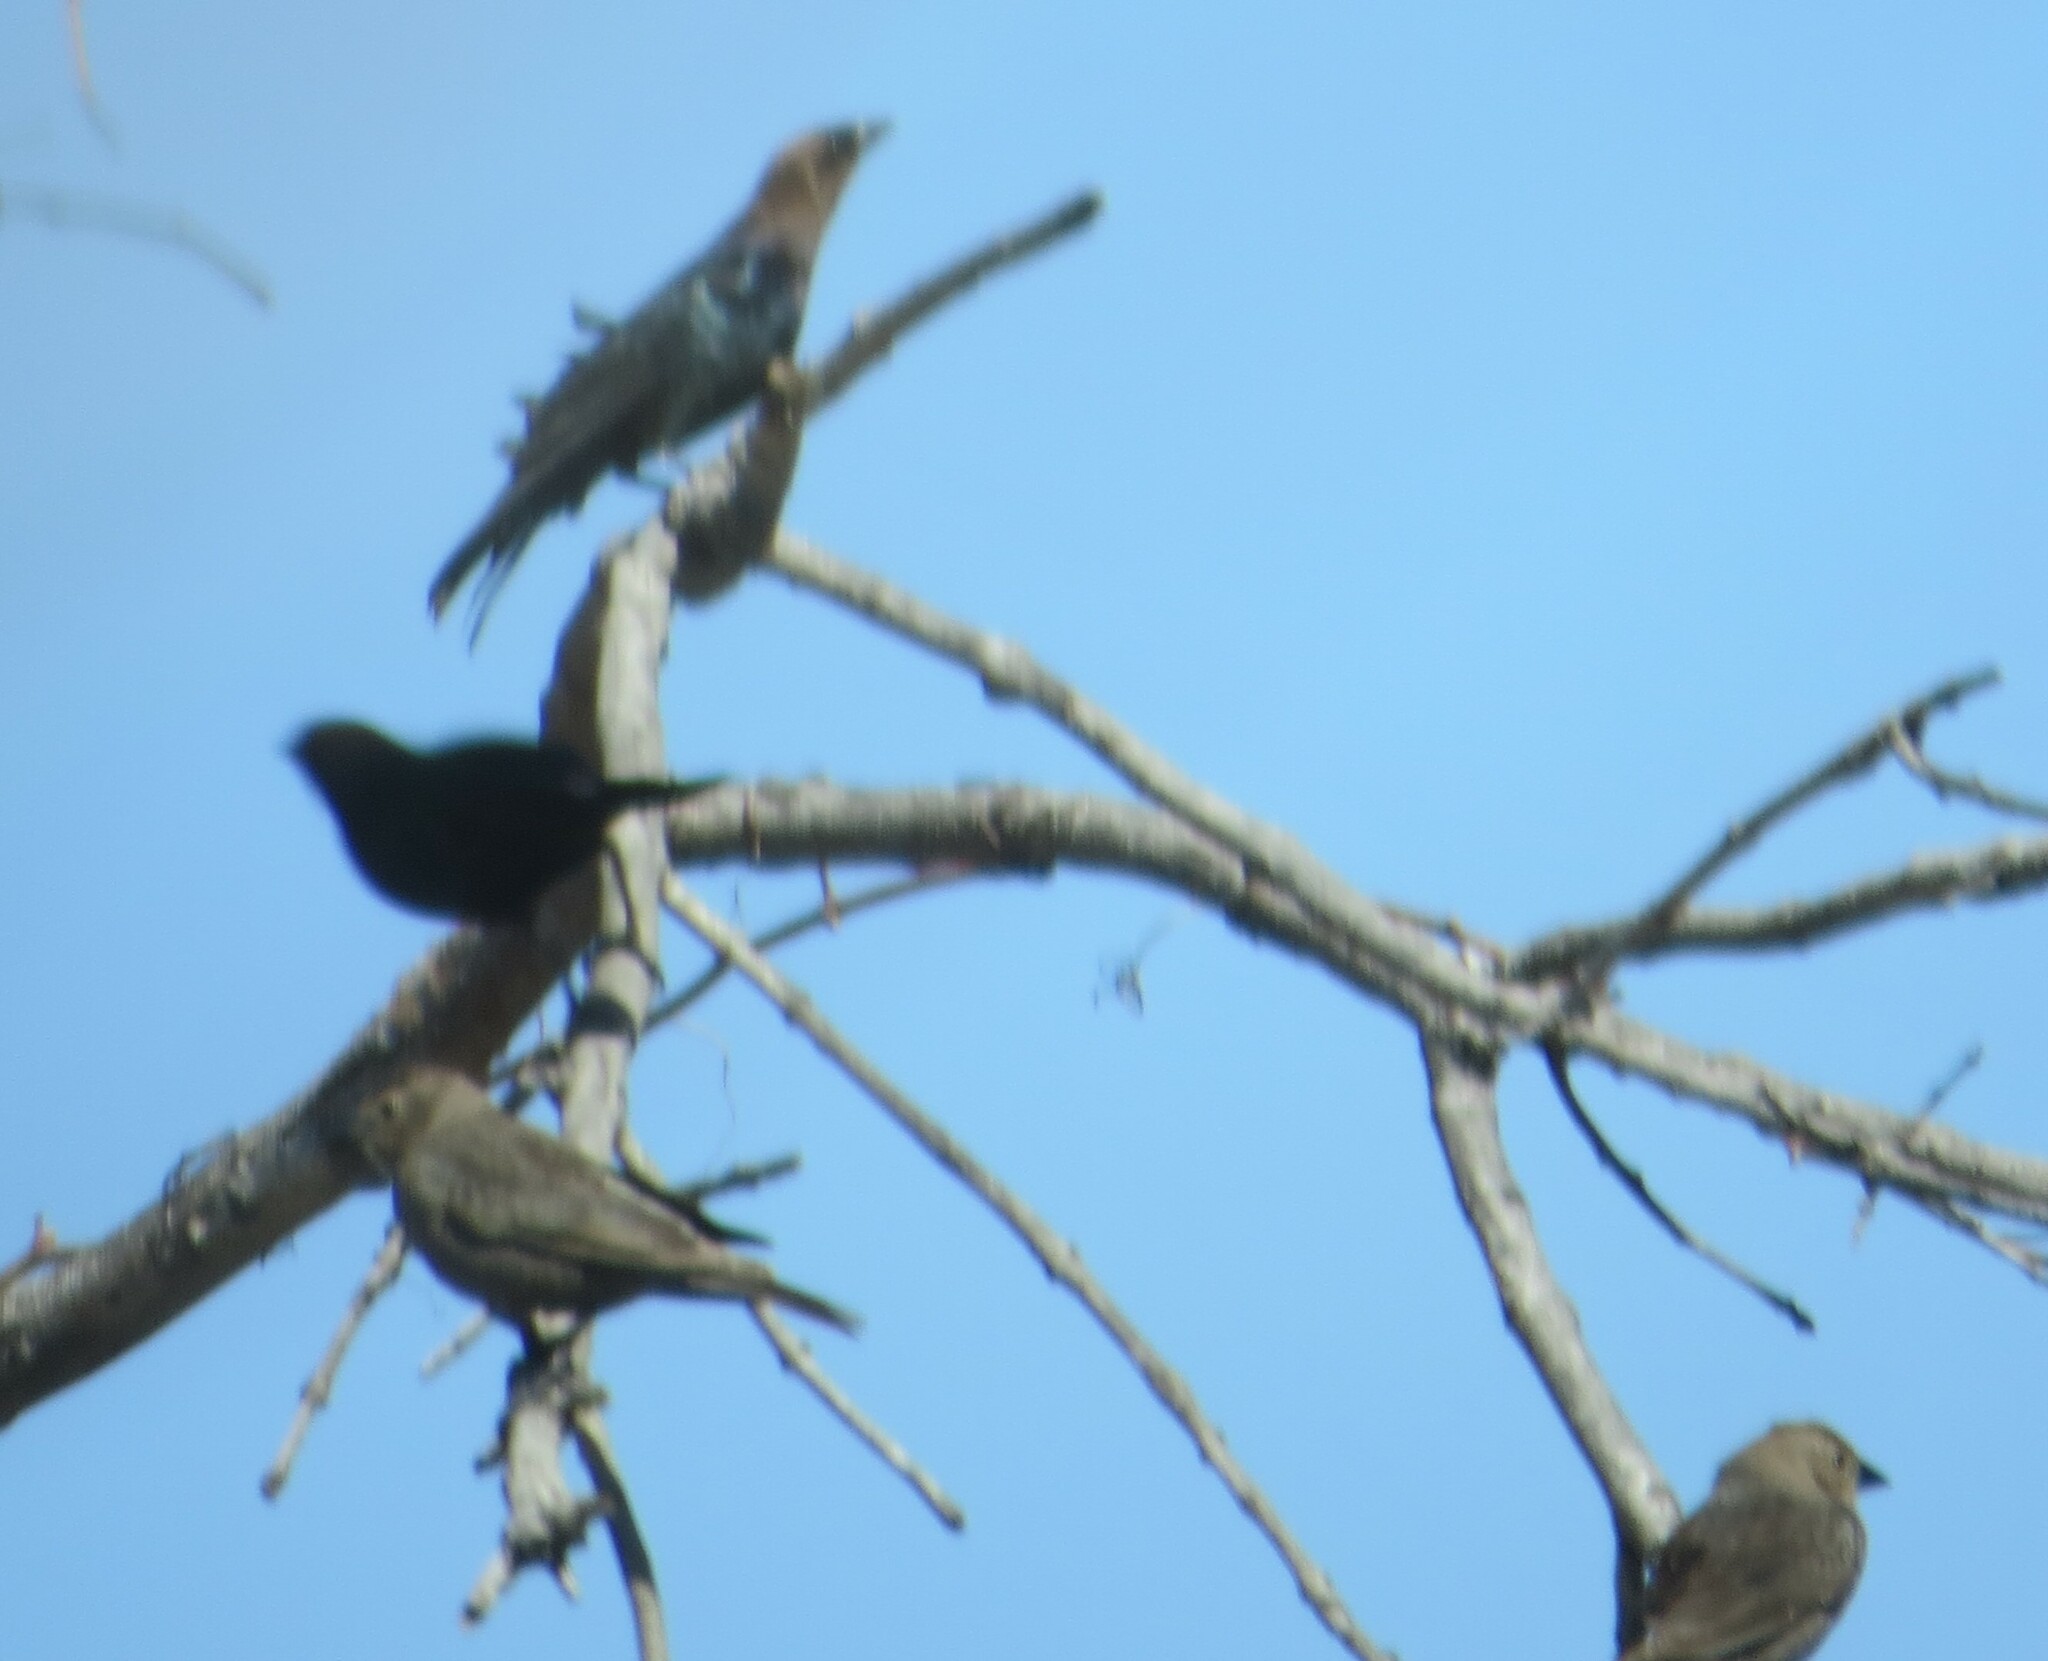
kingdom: Animalia
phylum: Chordata
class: Aves
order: Passeriformes
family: Icteridae
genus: Molothrus
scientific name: Molothrus ater
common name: Brown-headed cowbird
